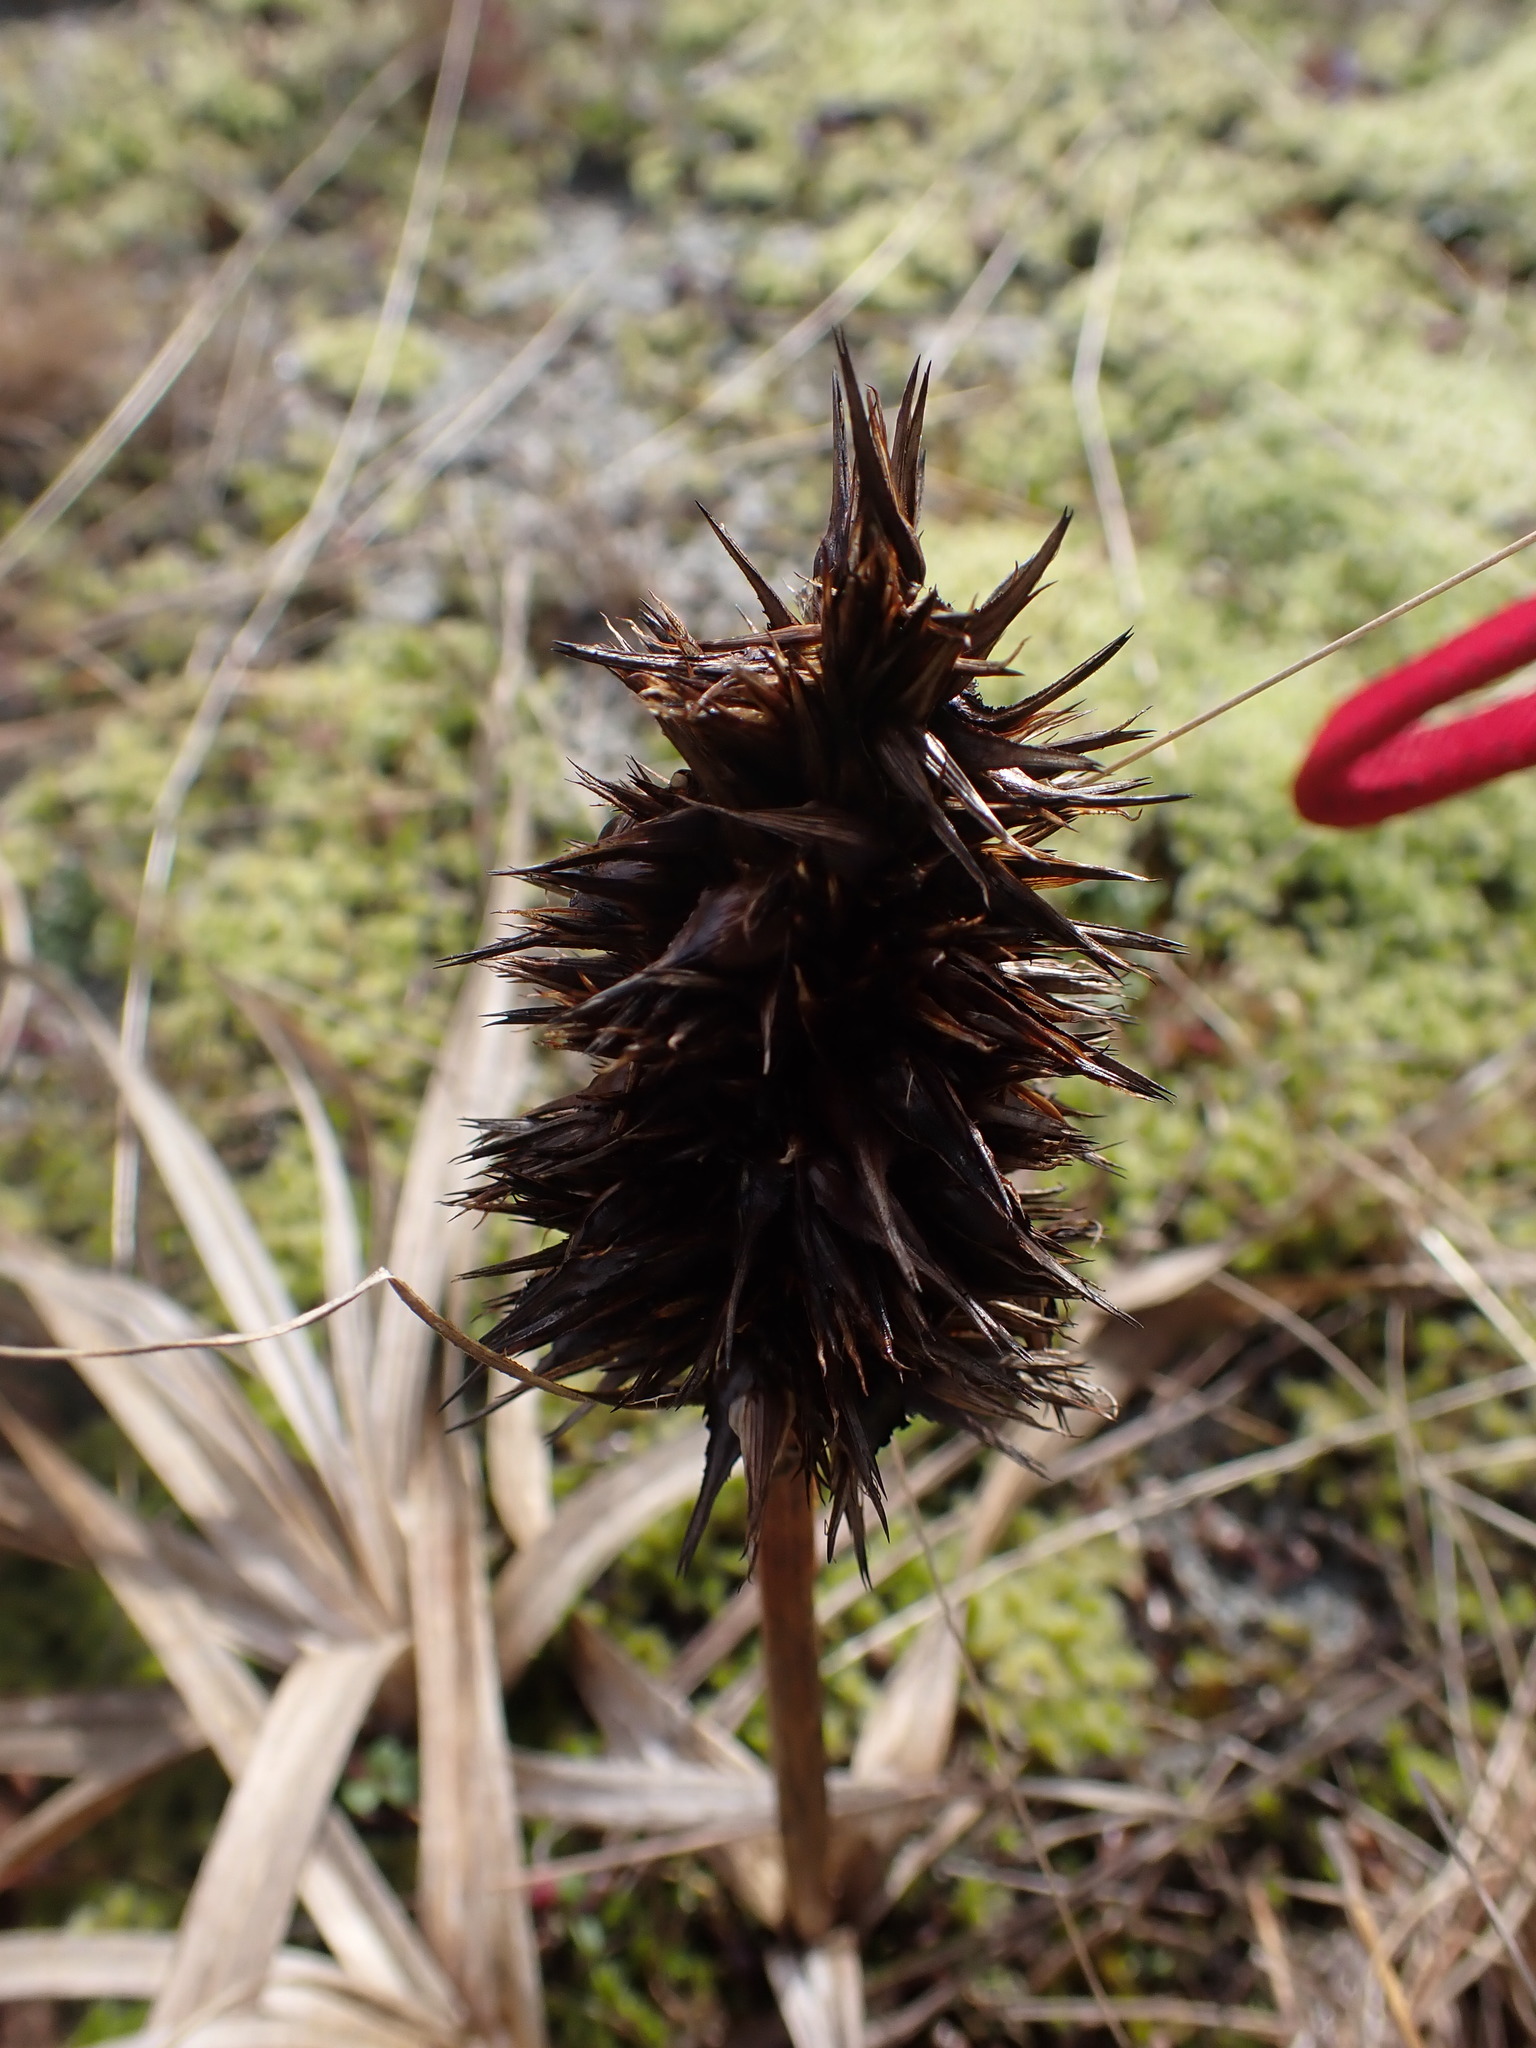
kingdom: Plantae
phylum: Tracheophyta
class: Liliopsida
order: Poales
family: Cyperaceae
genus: Carex
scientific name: Carex macrocephala
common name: Large-head sedge
